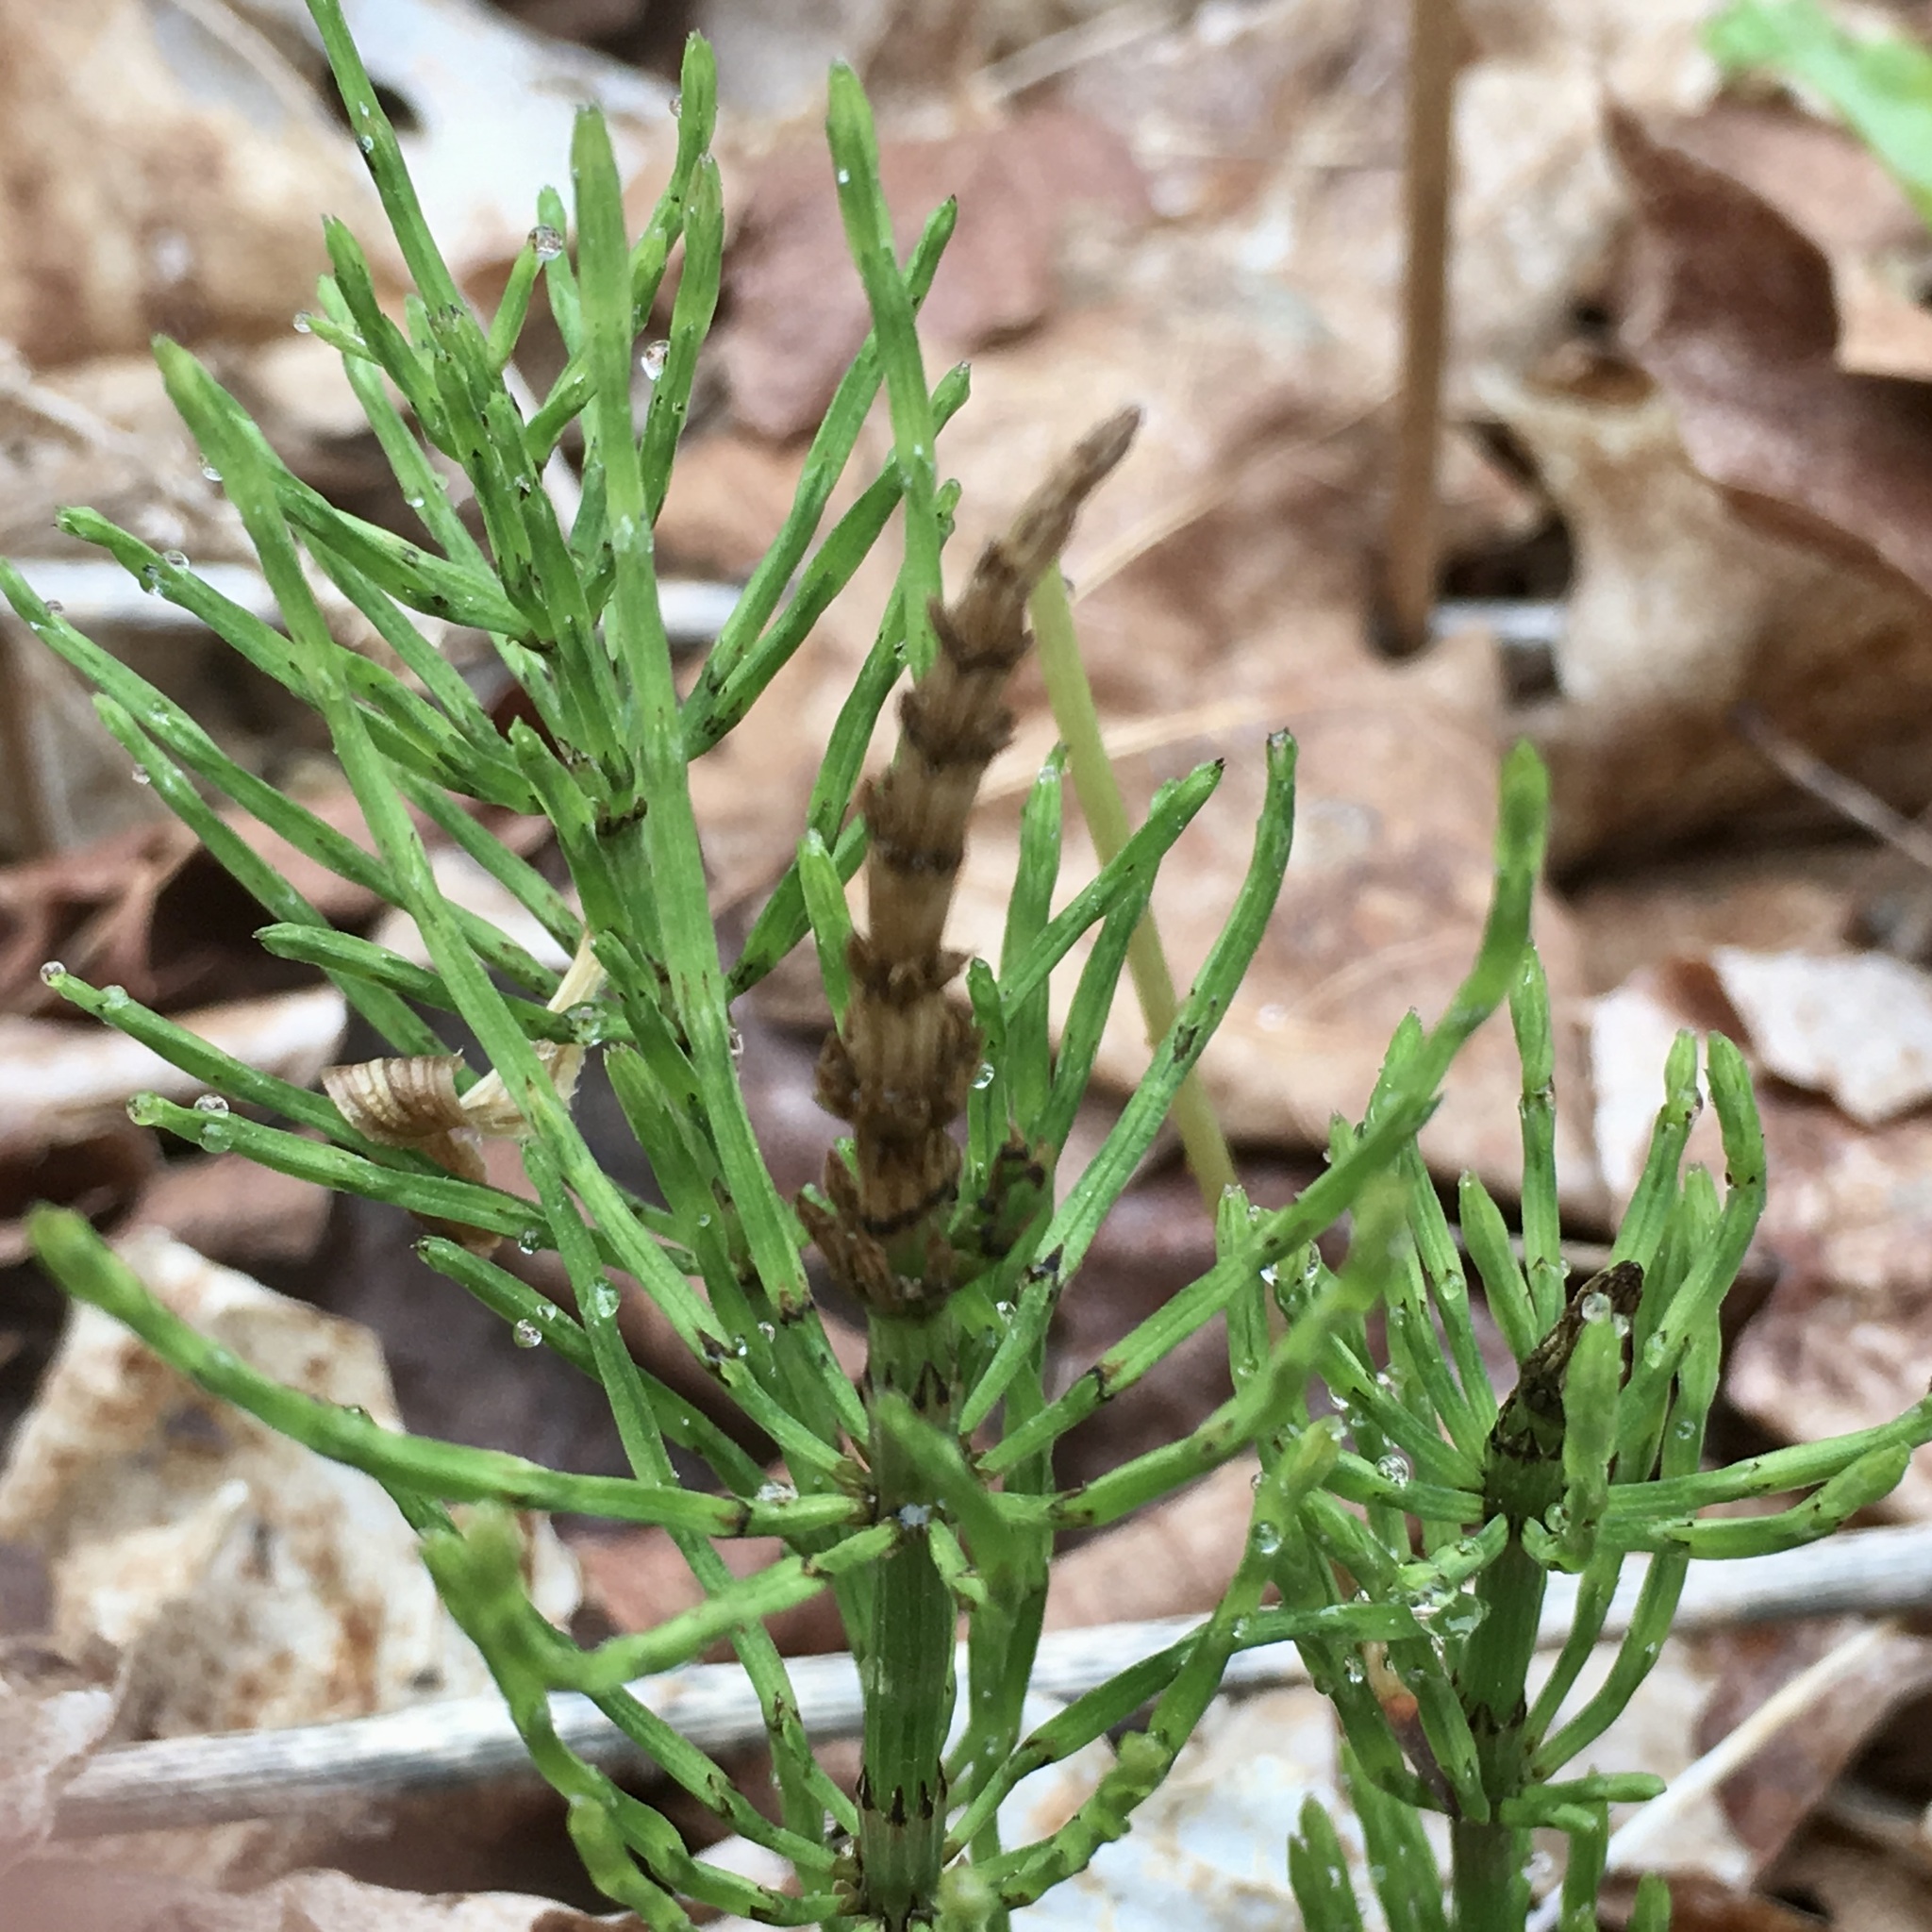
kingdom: Plantae
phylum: Tracheophyta
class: Polypodiopsida
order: Equisetales
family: Equisetaceae
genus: Equisetum
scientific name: Equisetum arvense
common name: Field horsetail
